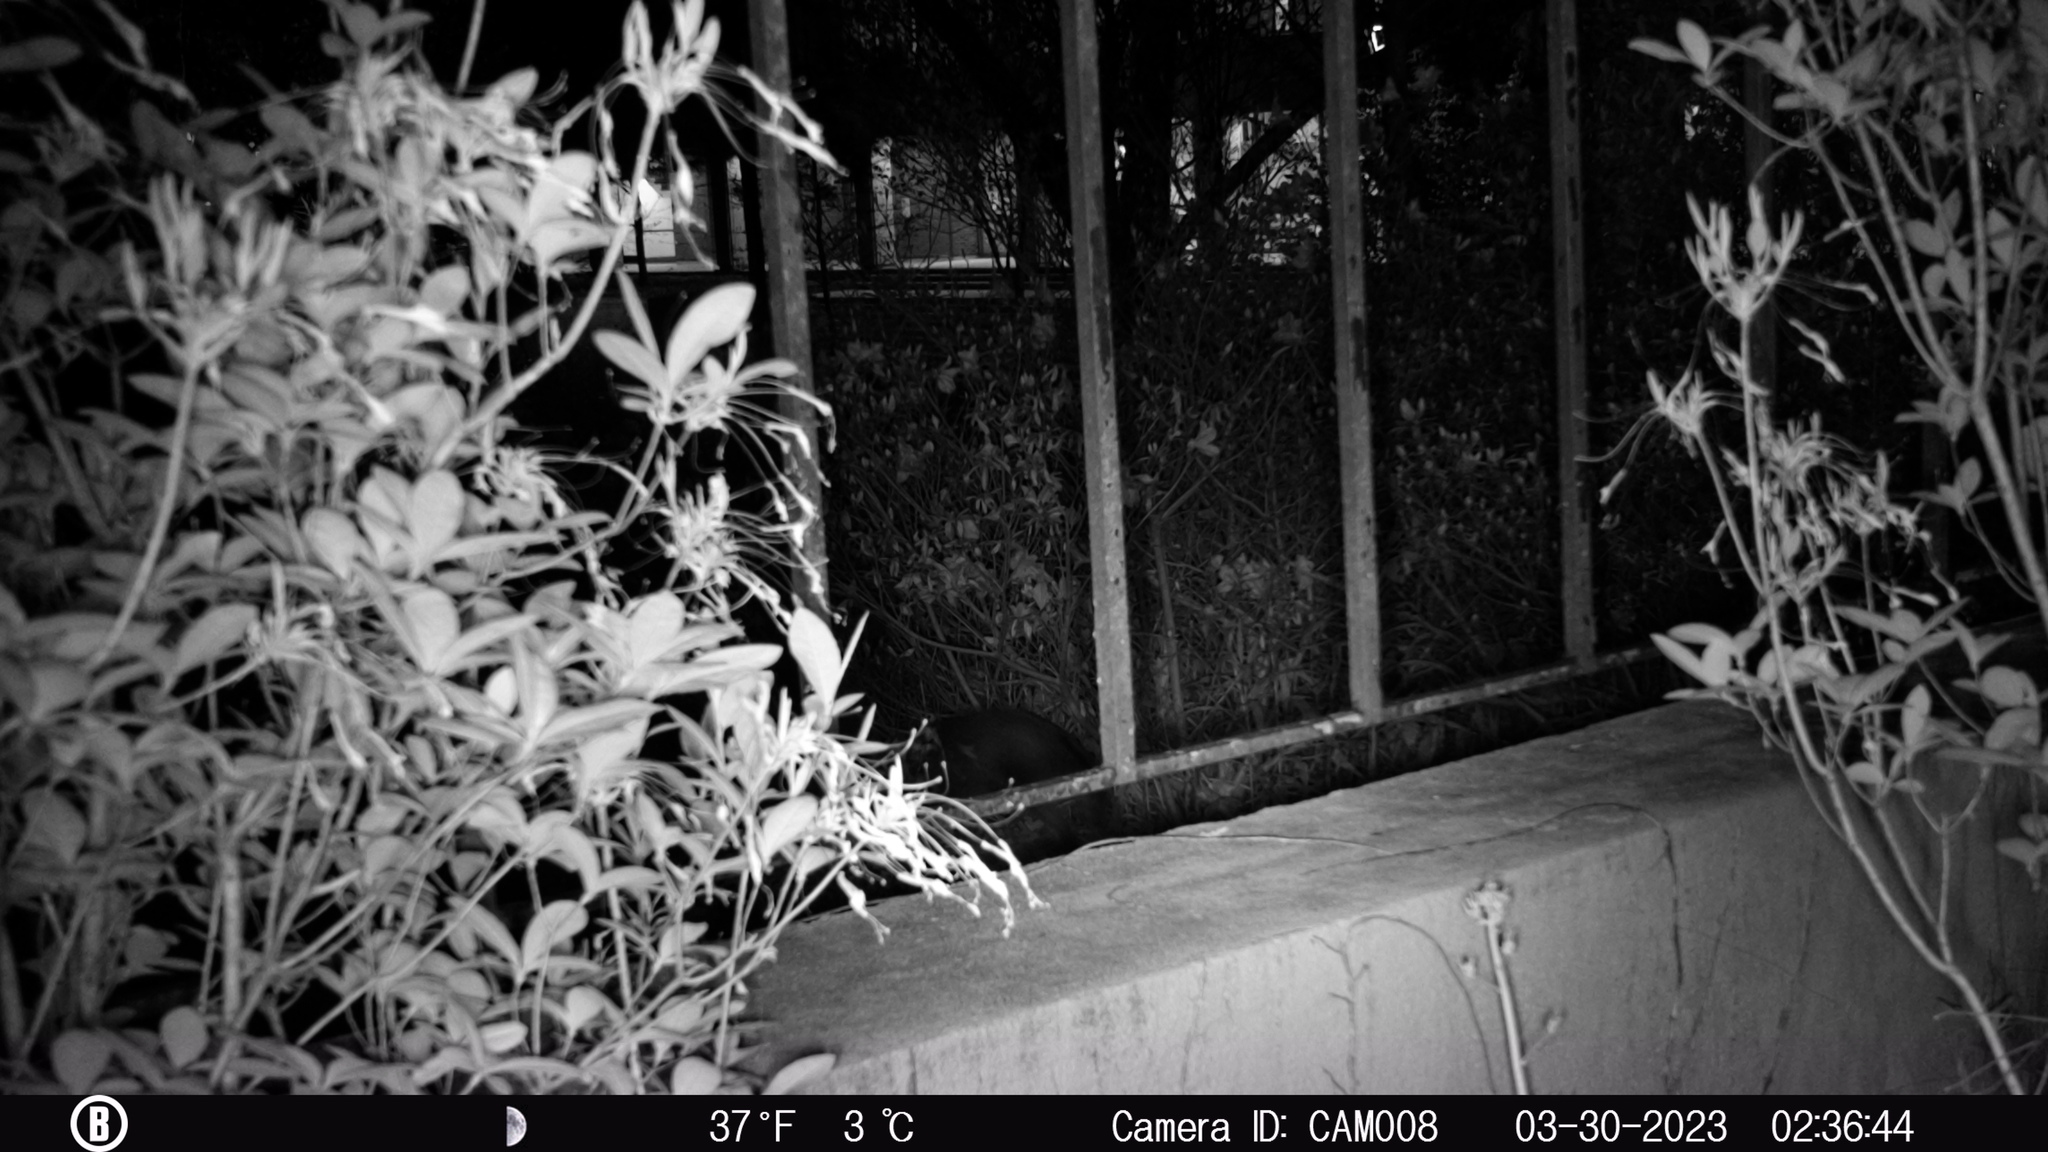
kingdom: Animalia
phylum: Chordata
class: Mammalia
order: Carnivora
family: Canidae
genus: Urocyon
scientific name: Urocyon cinereoargenteus
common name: Gray fox
